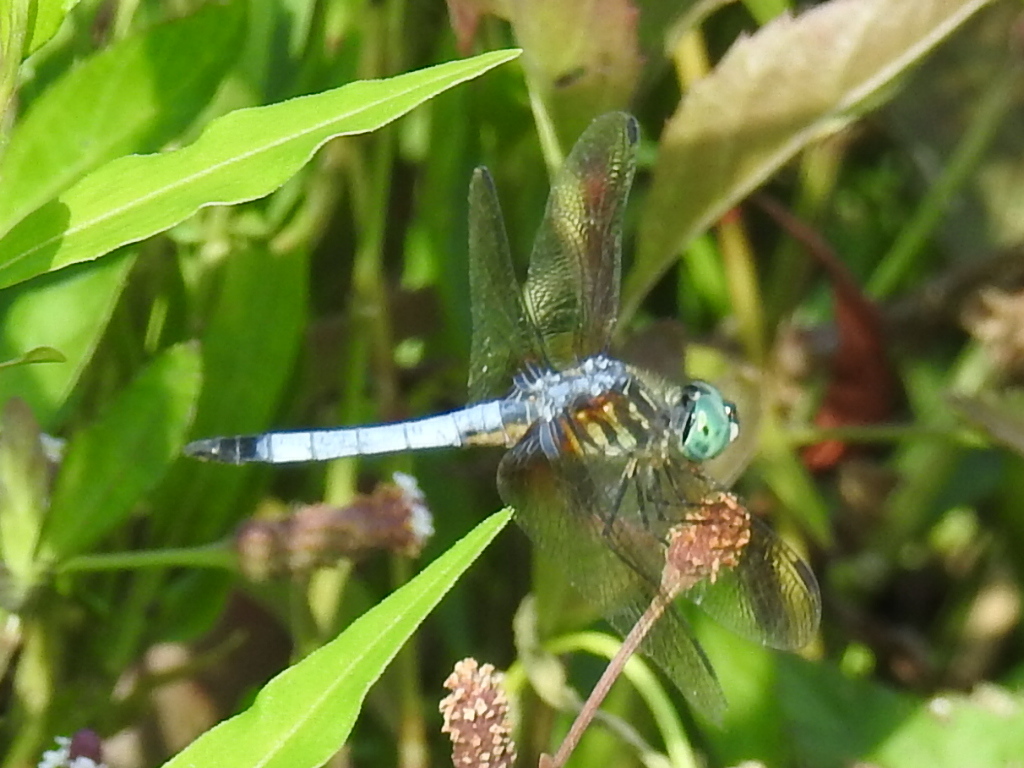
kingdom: Animalia
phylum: Arthropoda
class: Insecta
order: Odonata
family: Libellulidae
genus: Pachydiplax
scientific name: Pachydiplax longipennis
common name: Blue dasher
